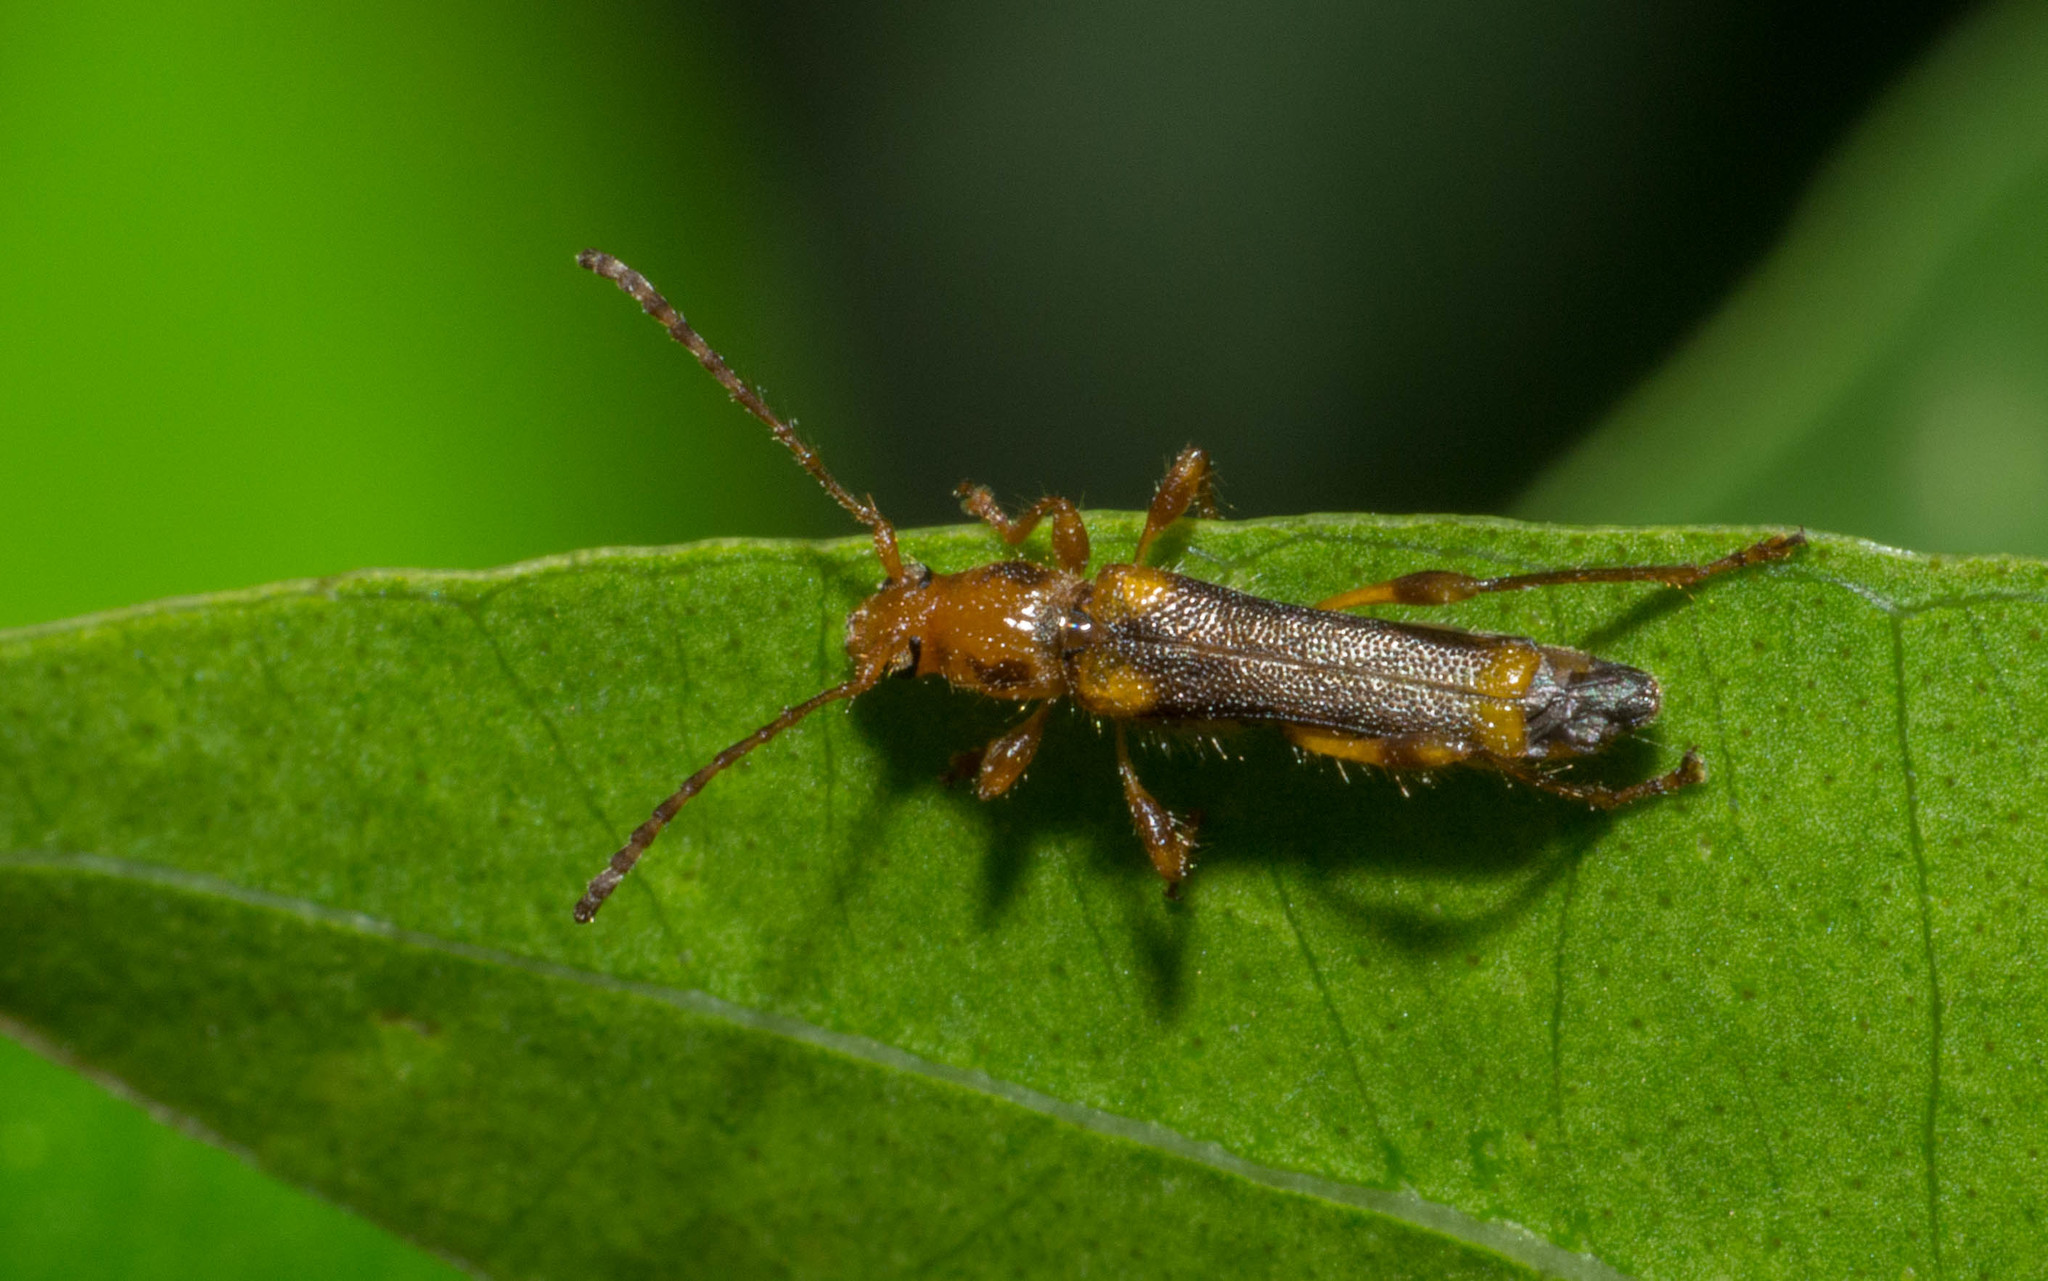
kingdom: Animalia
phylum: Arthropoda
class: Insecta
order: Coleoptera
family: Cerambycidae
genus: Eclipta
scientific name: Eclipta amabilis
